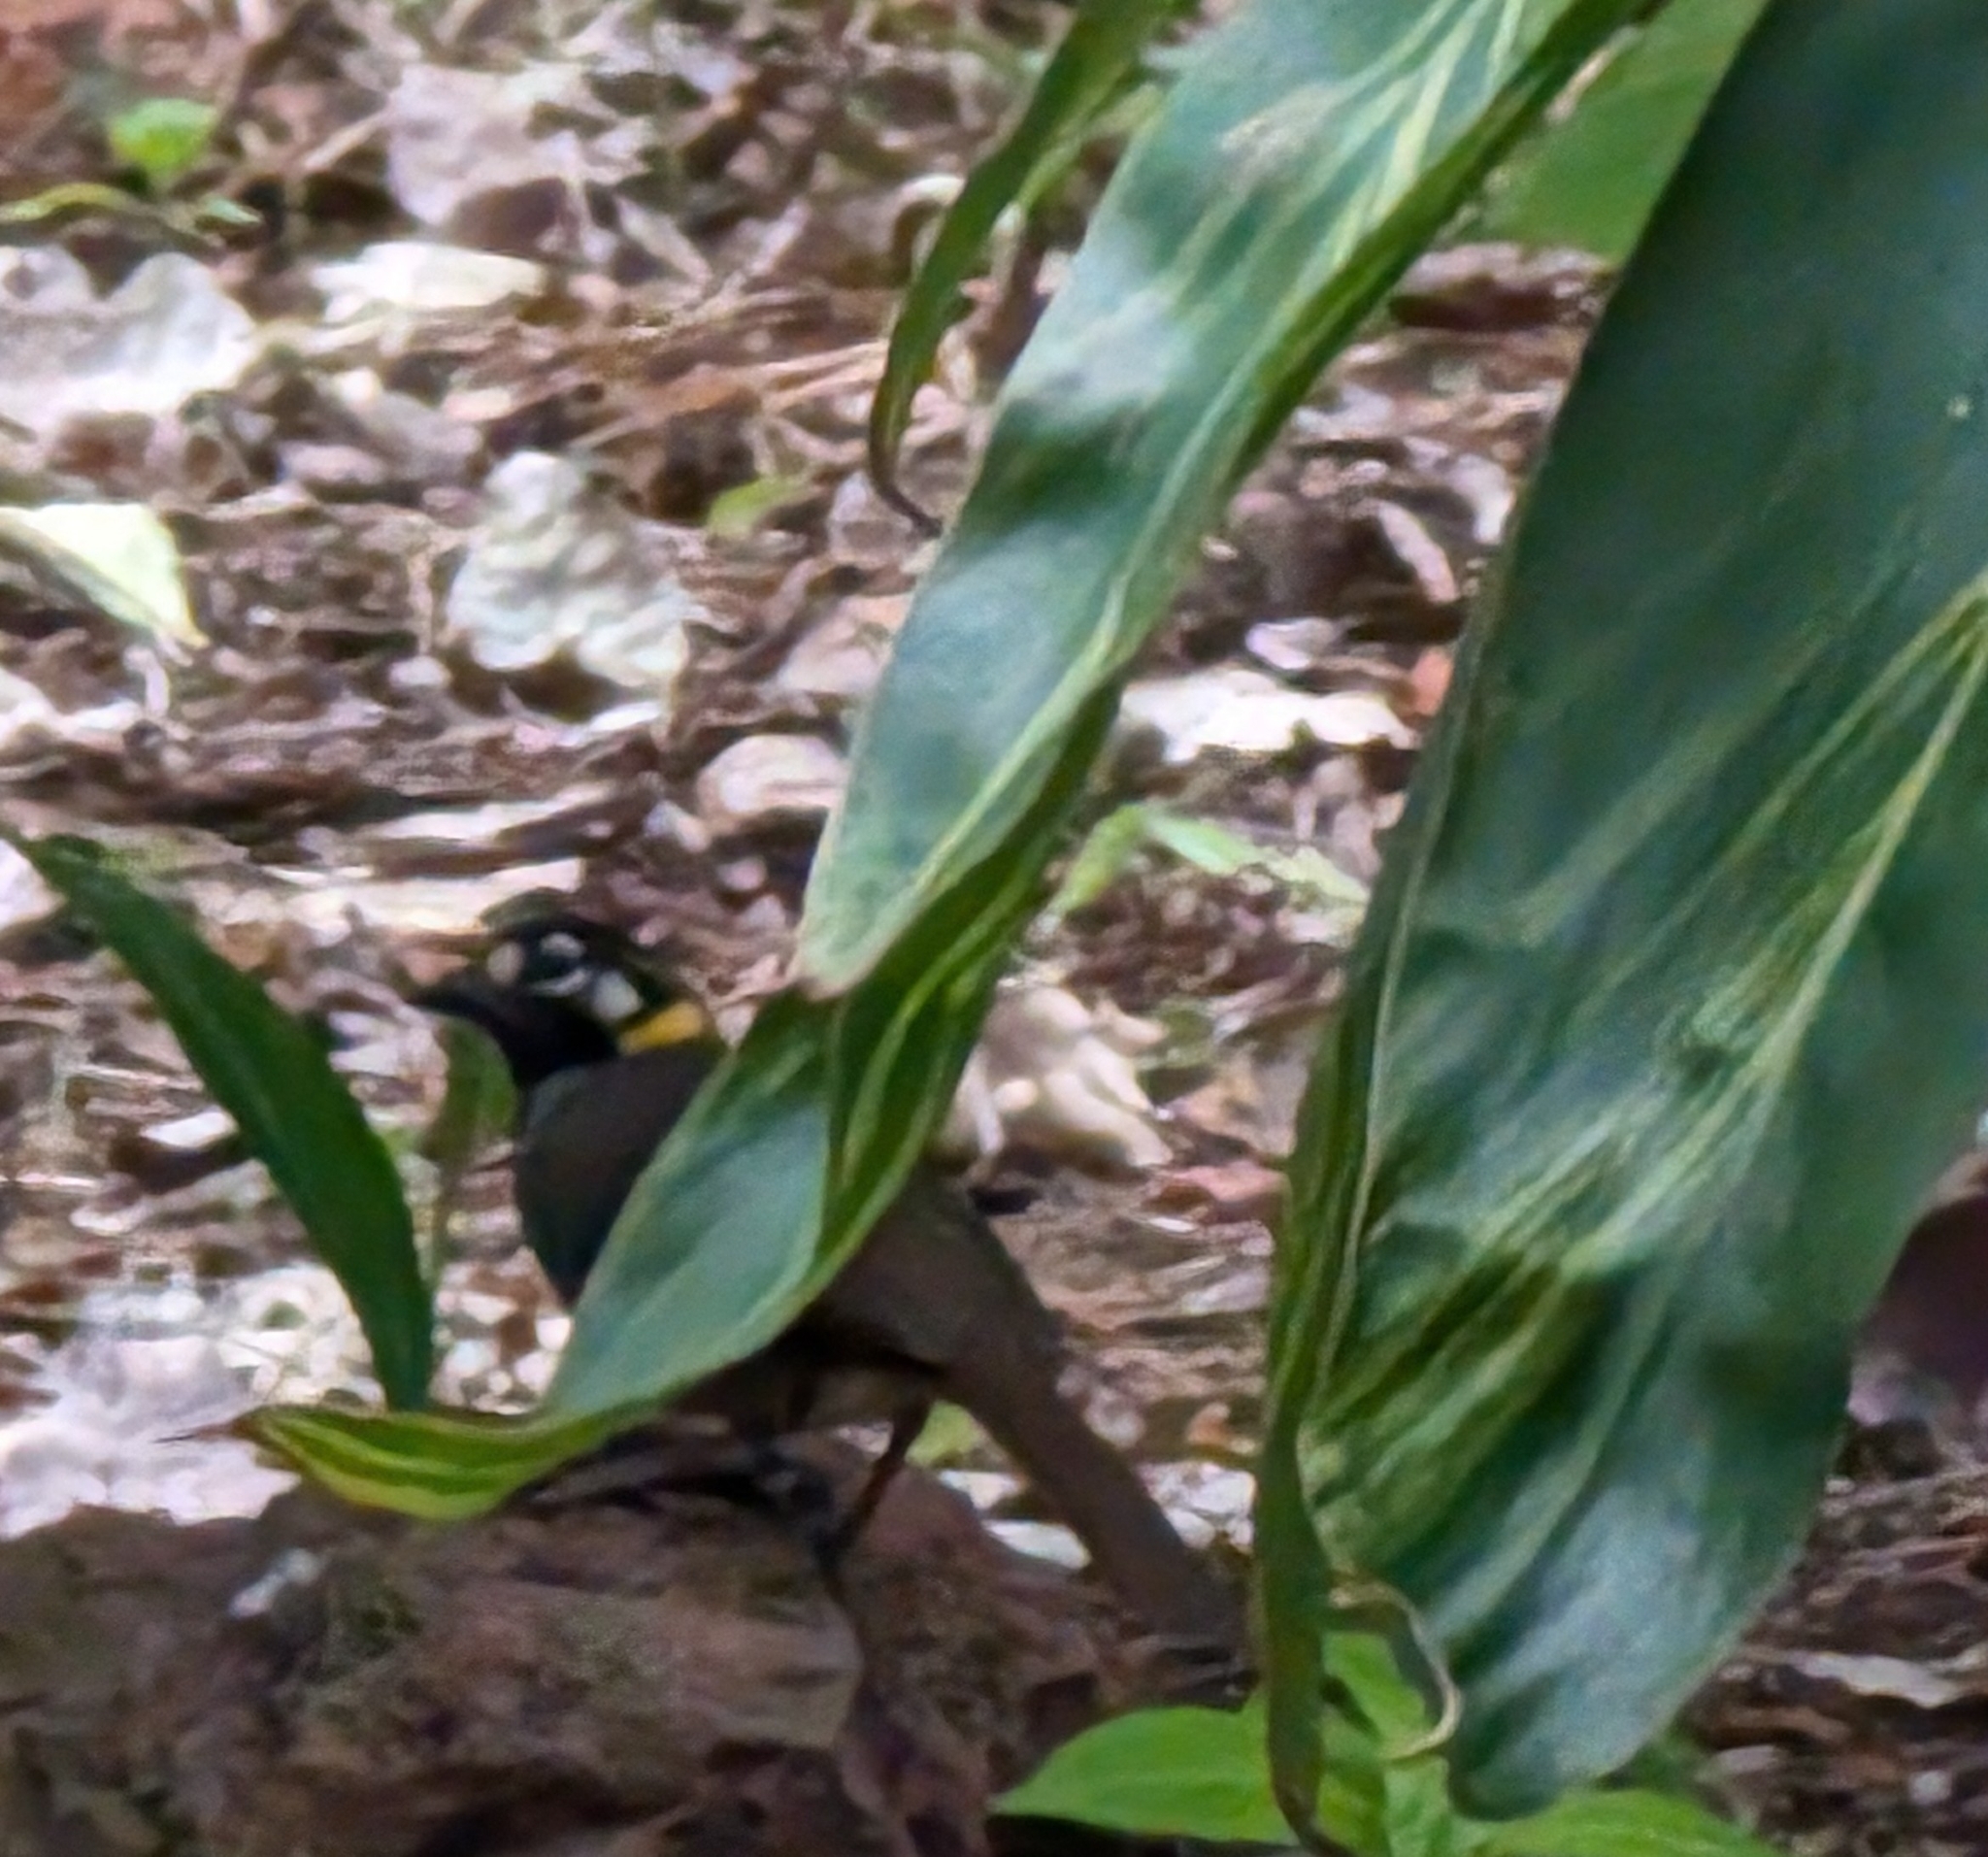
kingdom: Animalia
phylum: Chordata
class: Aves
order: Passeriformes
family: Passerellidae
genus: Melozone
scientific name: Melozone leucotis
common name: White-eared ground-sparrow
